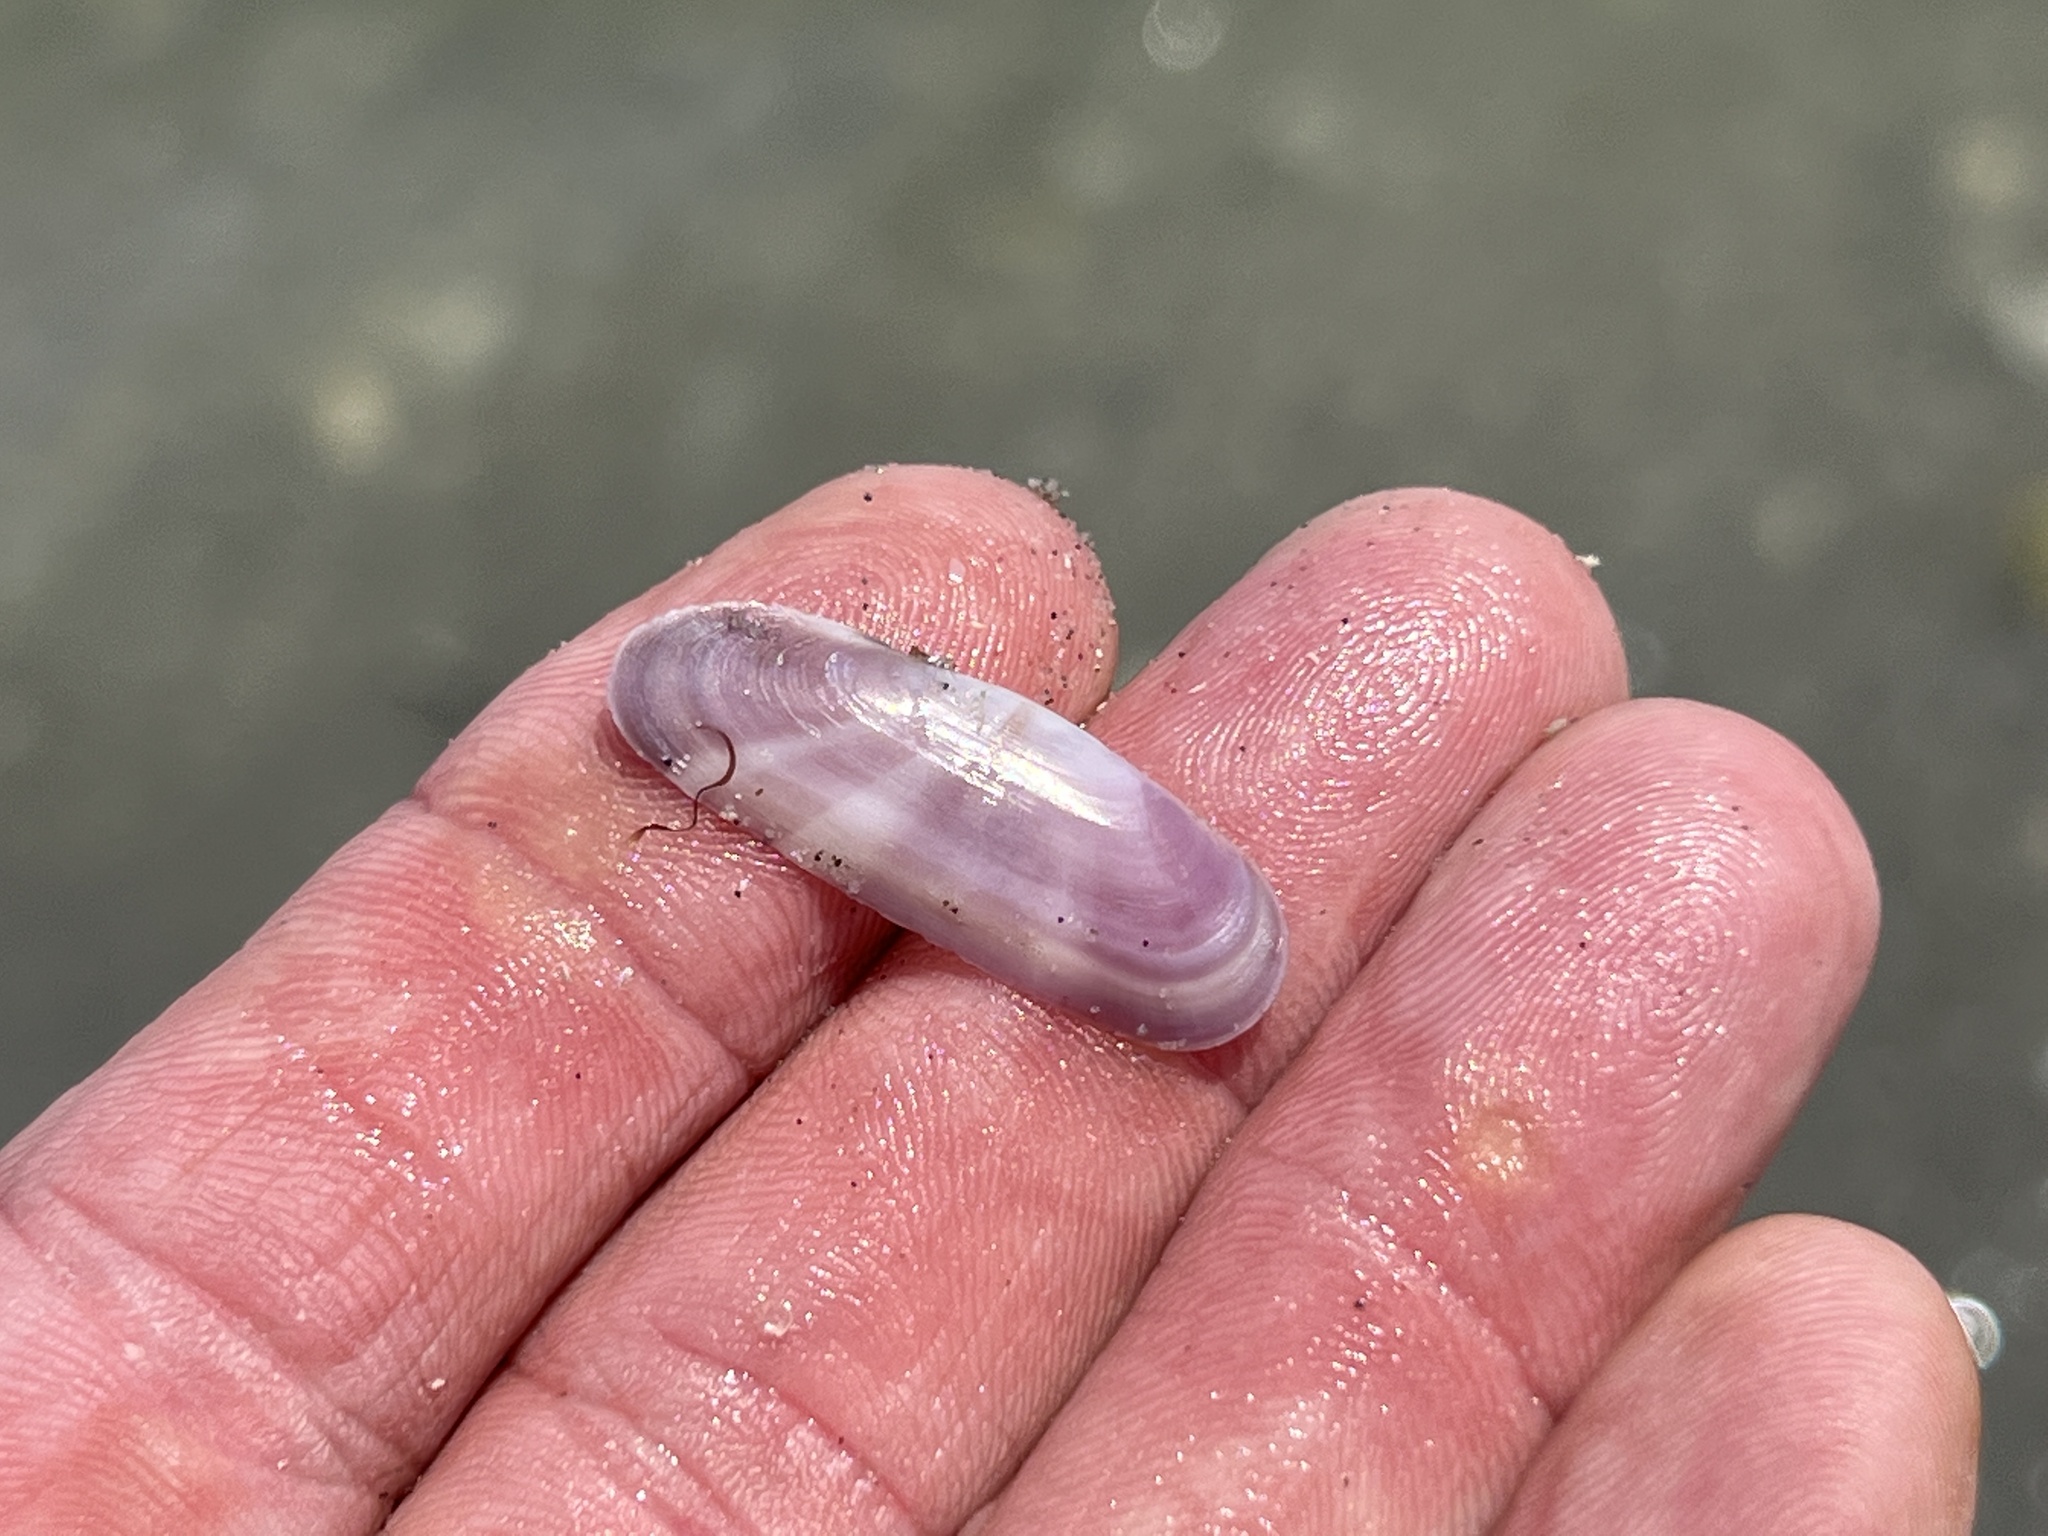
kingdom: Animalia
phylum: Mollusca
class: Bivalvia
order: Cardiida
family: Solecurtidae
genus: Tagelus
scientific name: Tagelus divisus
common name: Purplish tagelus
